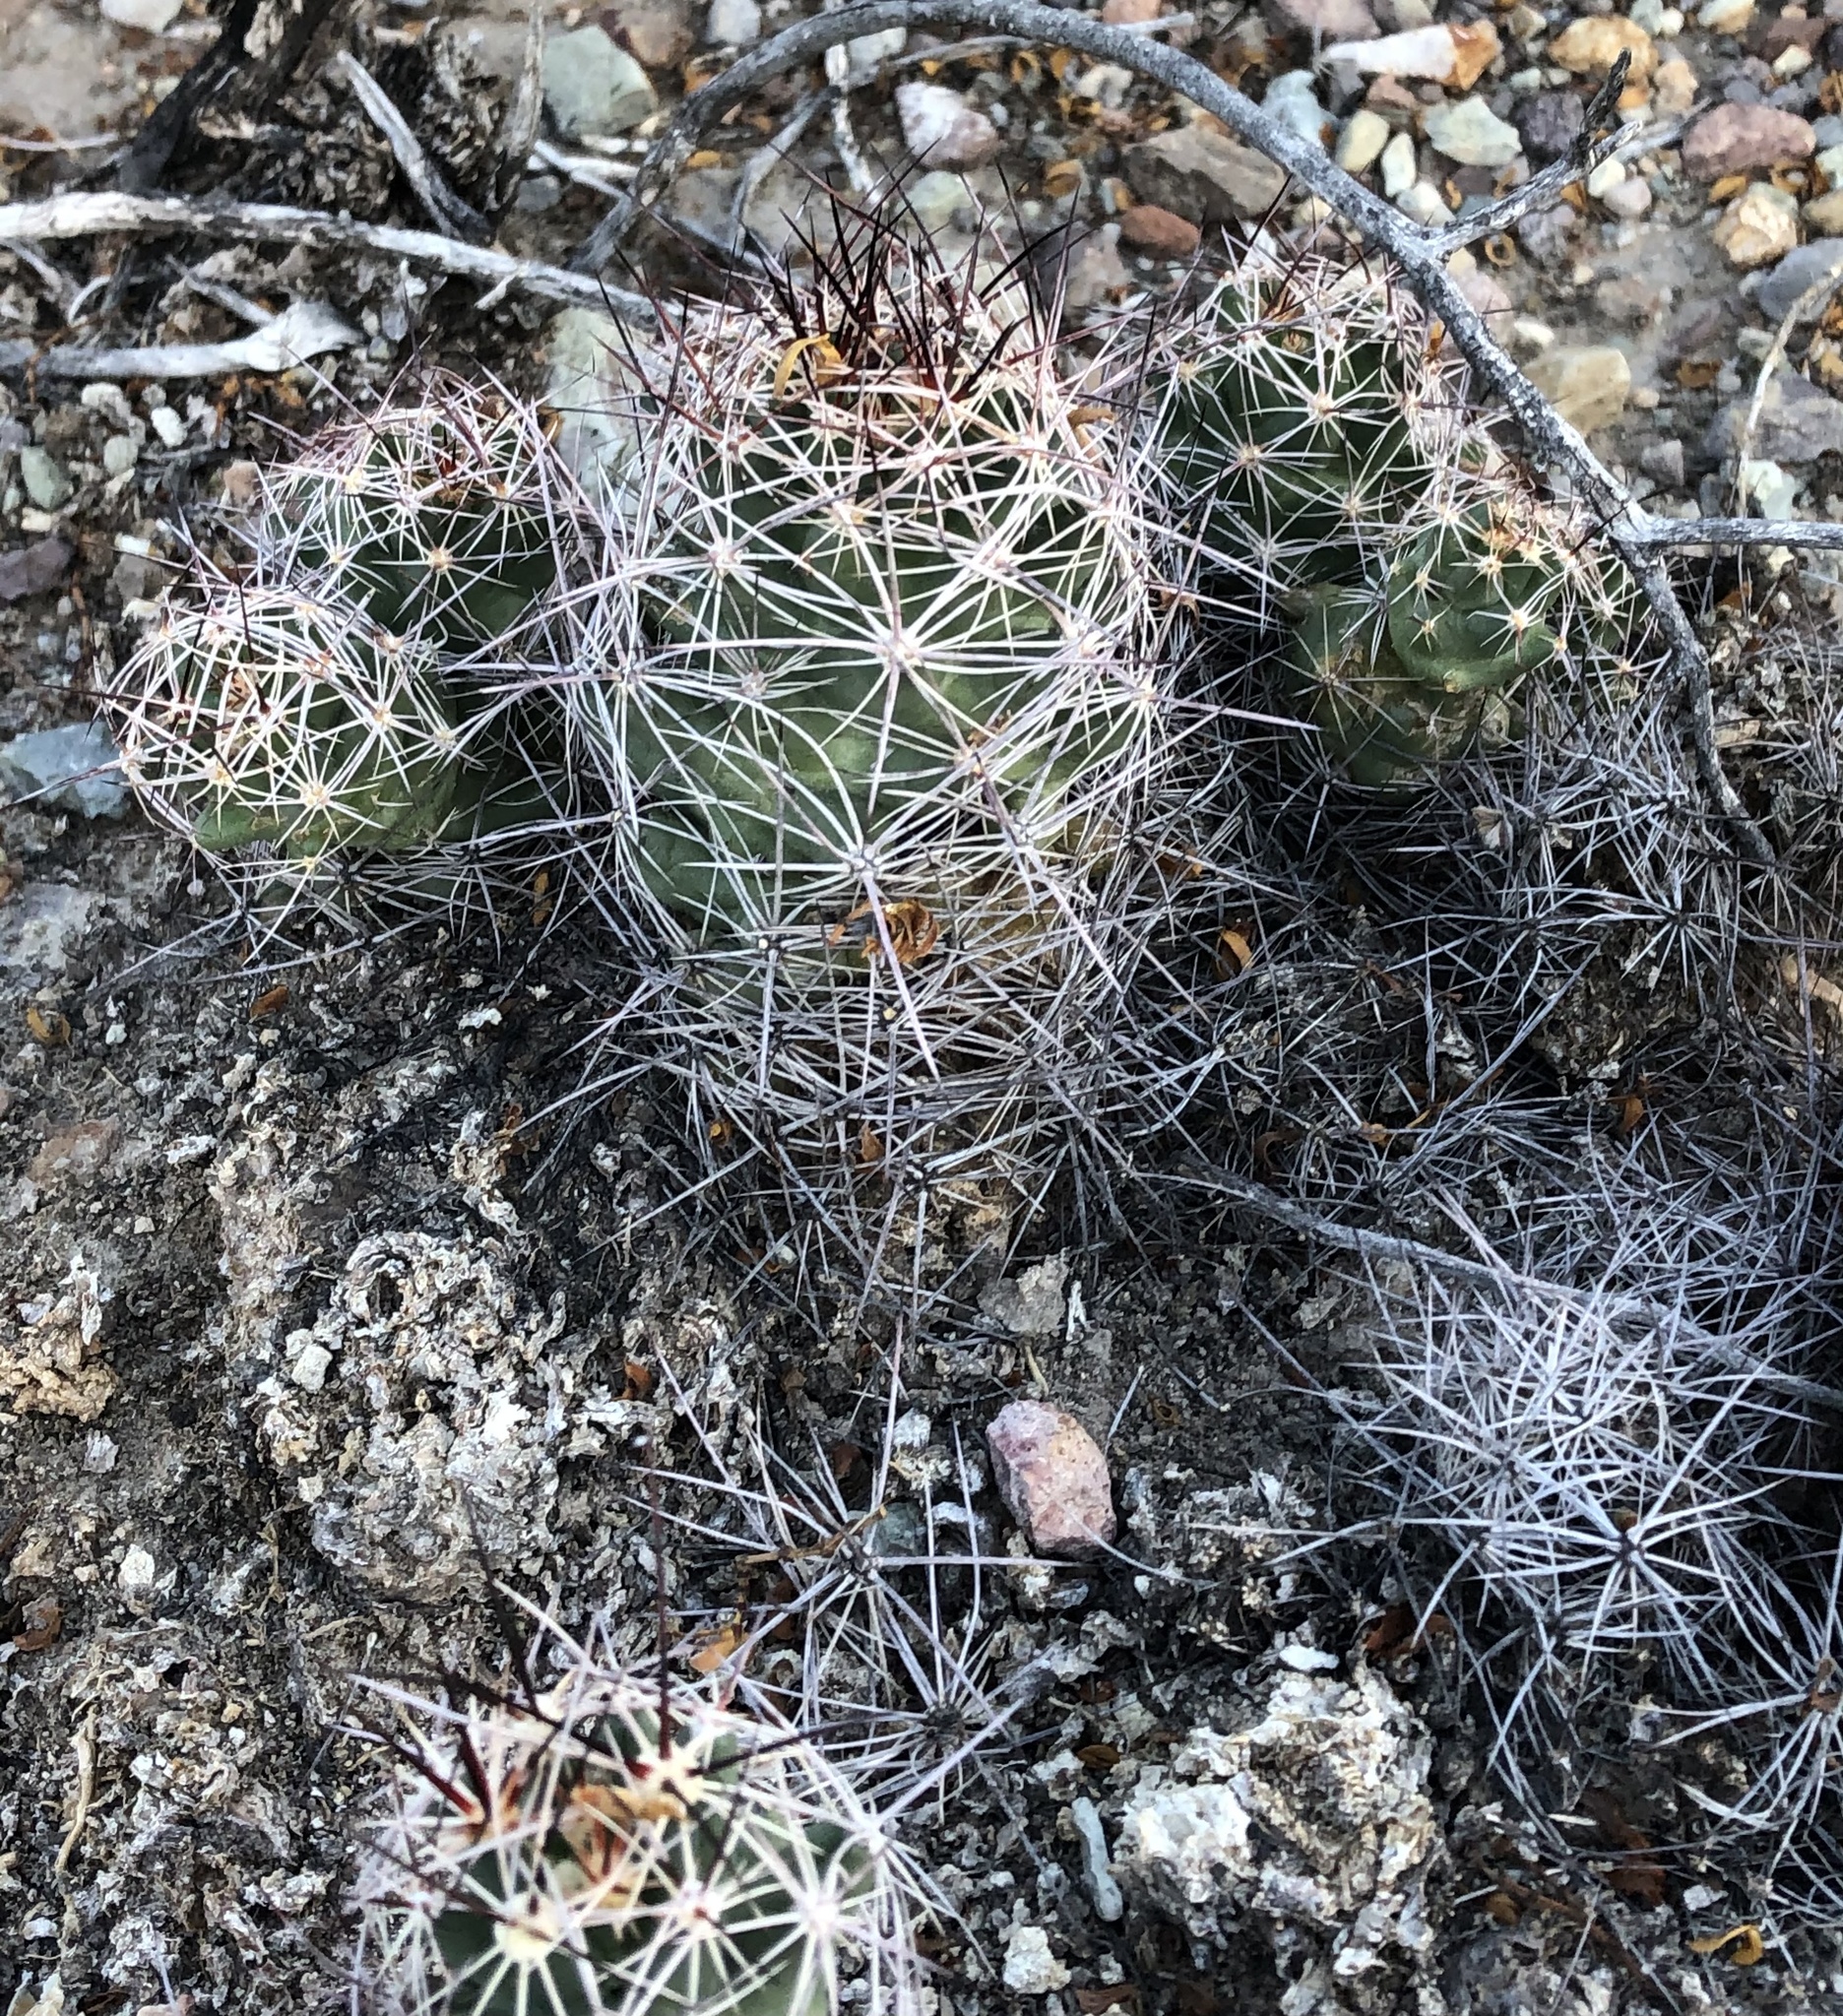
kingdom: Plantae
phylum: Tracheophyta
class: Magnoliopsida
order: Caryophyllales
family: Cactaceae
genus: Coryphantha
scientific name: Coryphantha macromeris
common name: Nipple beehive cactus
